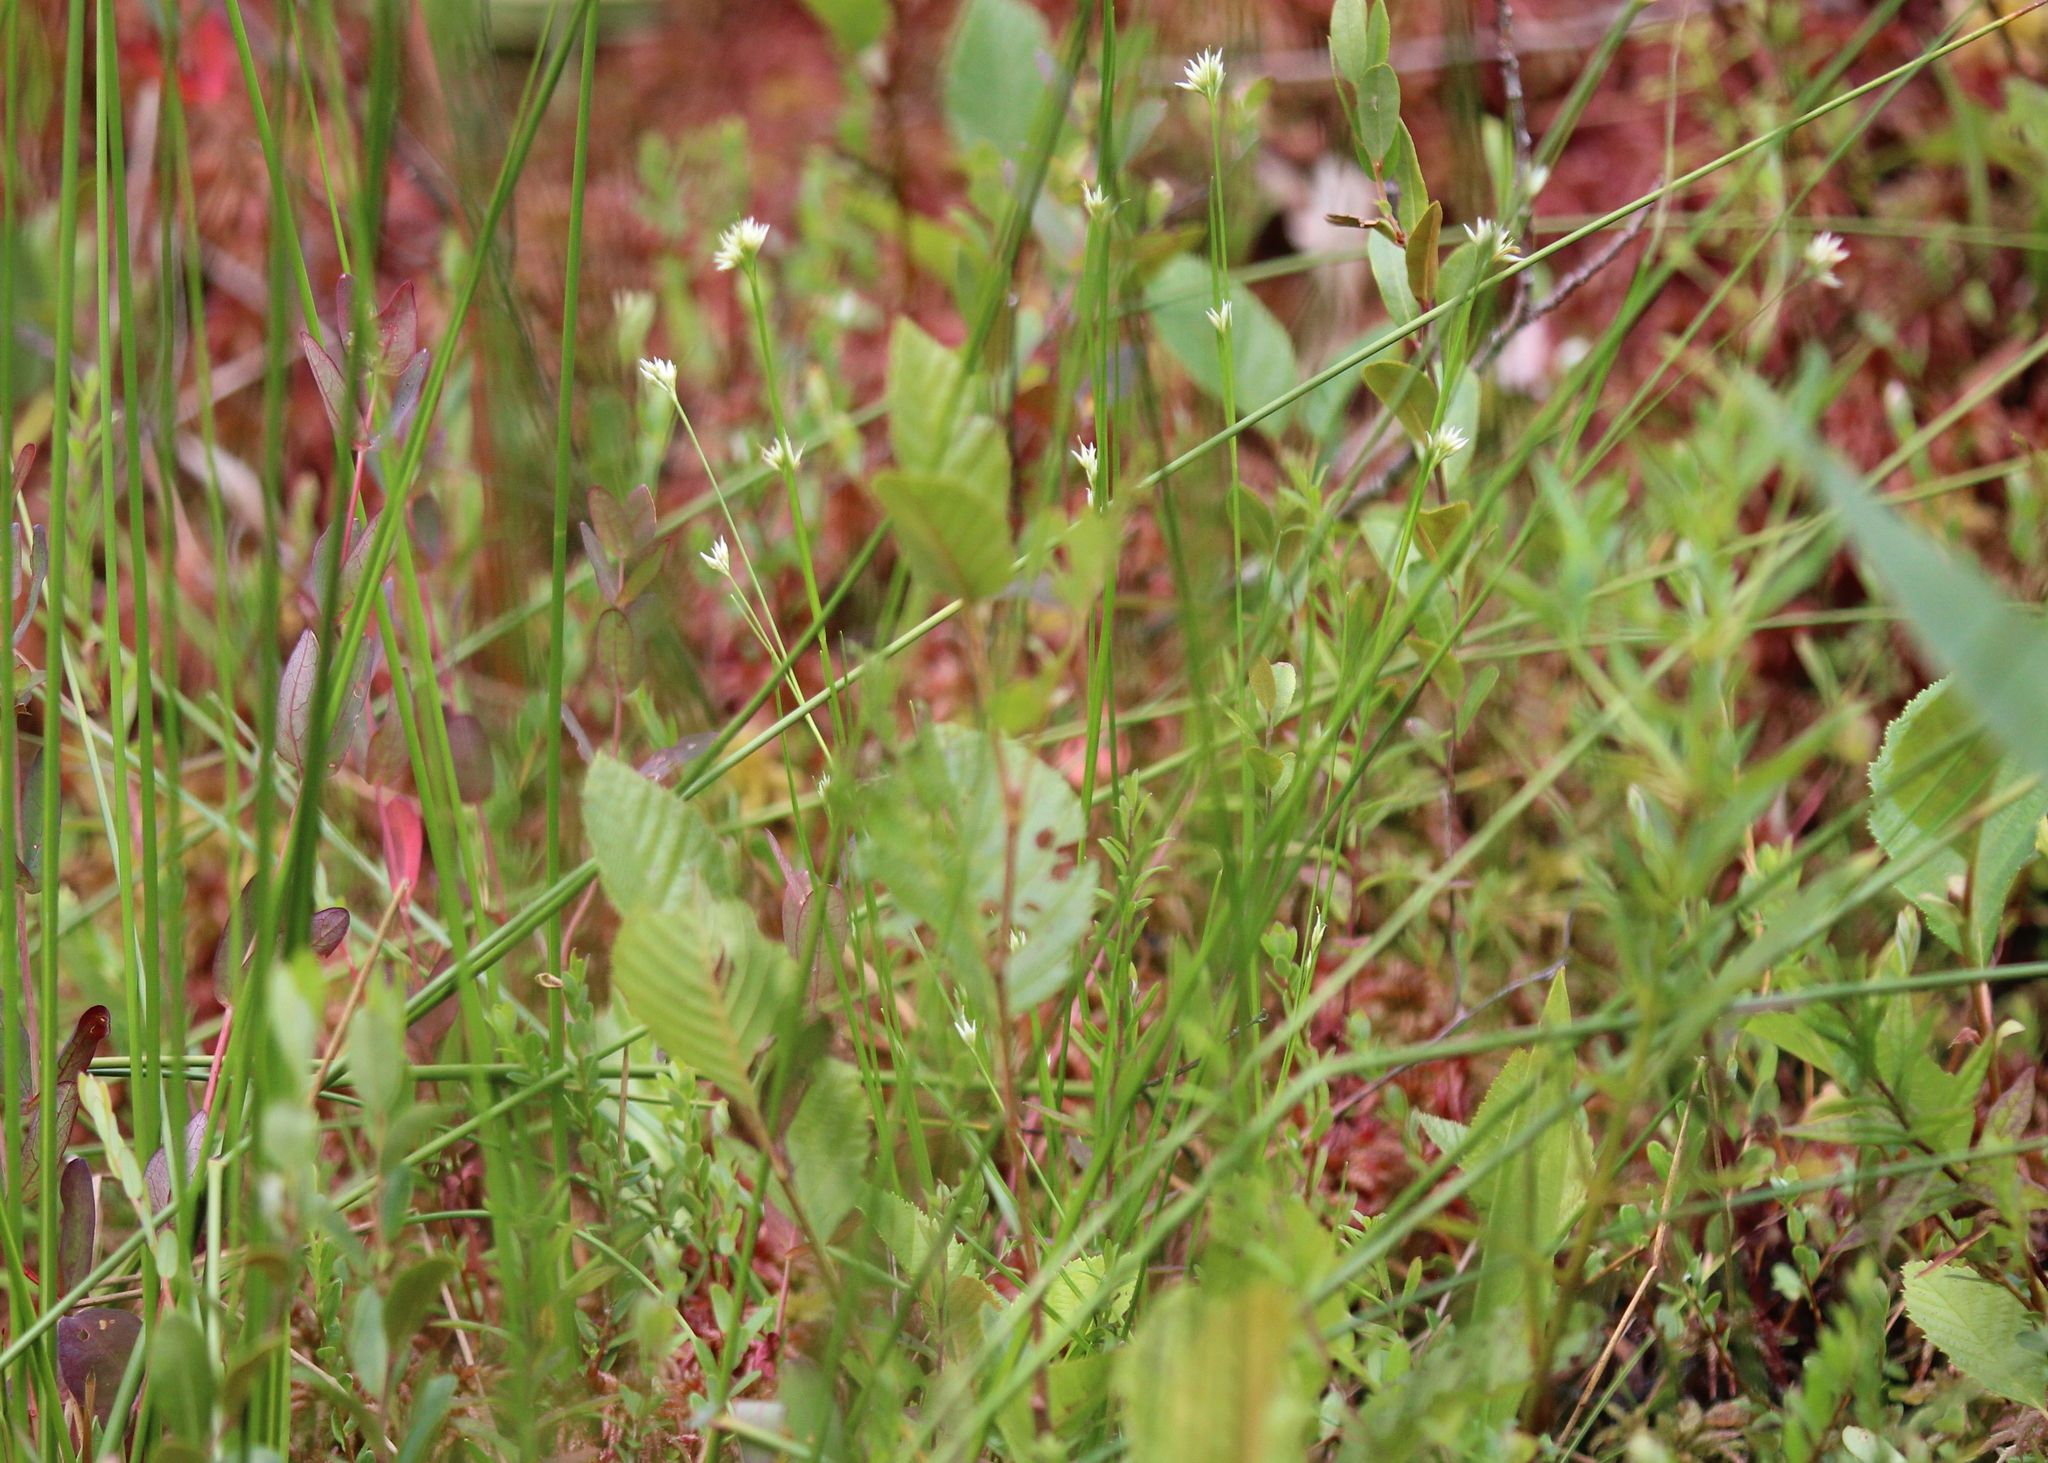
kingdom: Plantae
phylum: Tracheophyta
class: Liliopsida
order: Poales
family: Cyperaceae
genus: Rhynchospora
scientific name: Rhynchospora alba
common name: White beak-sedge
